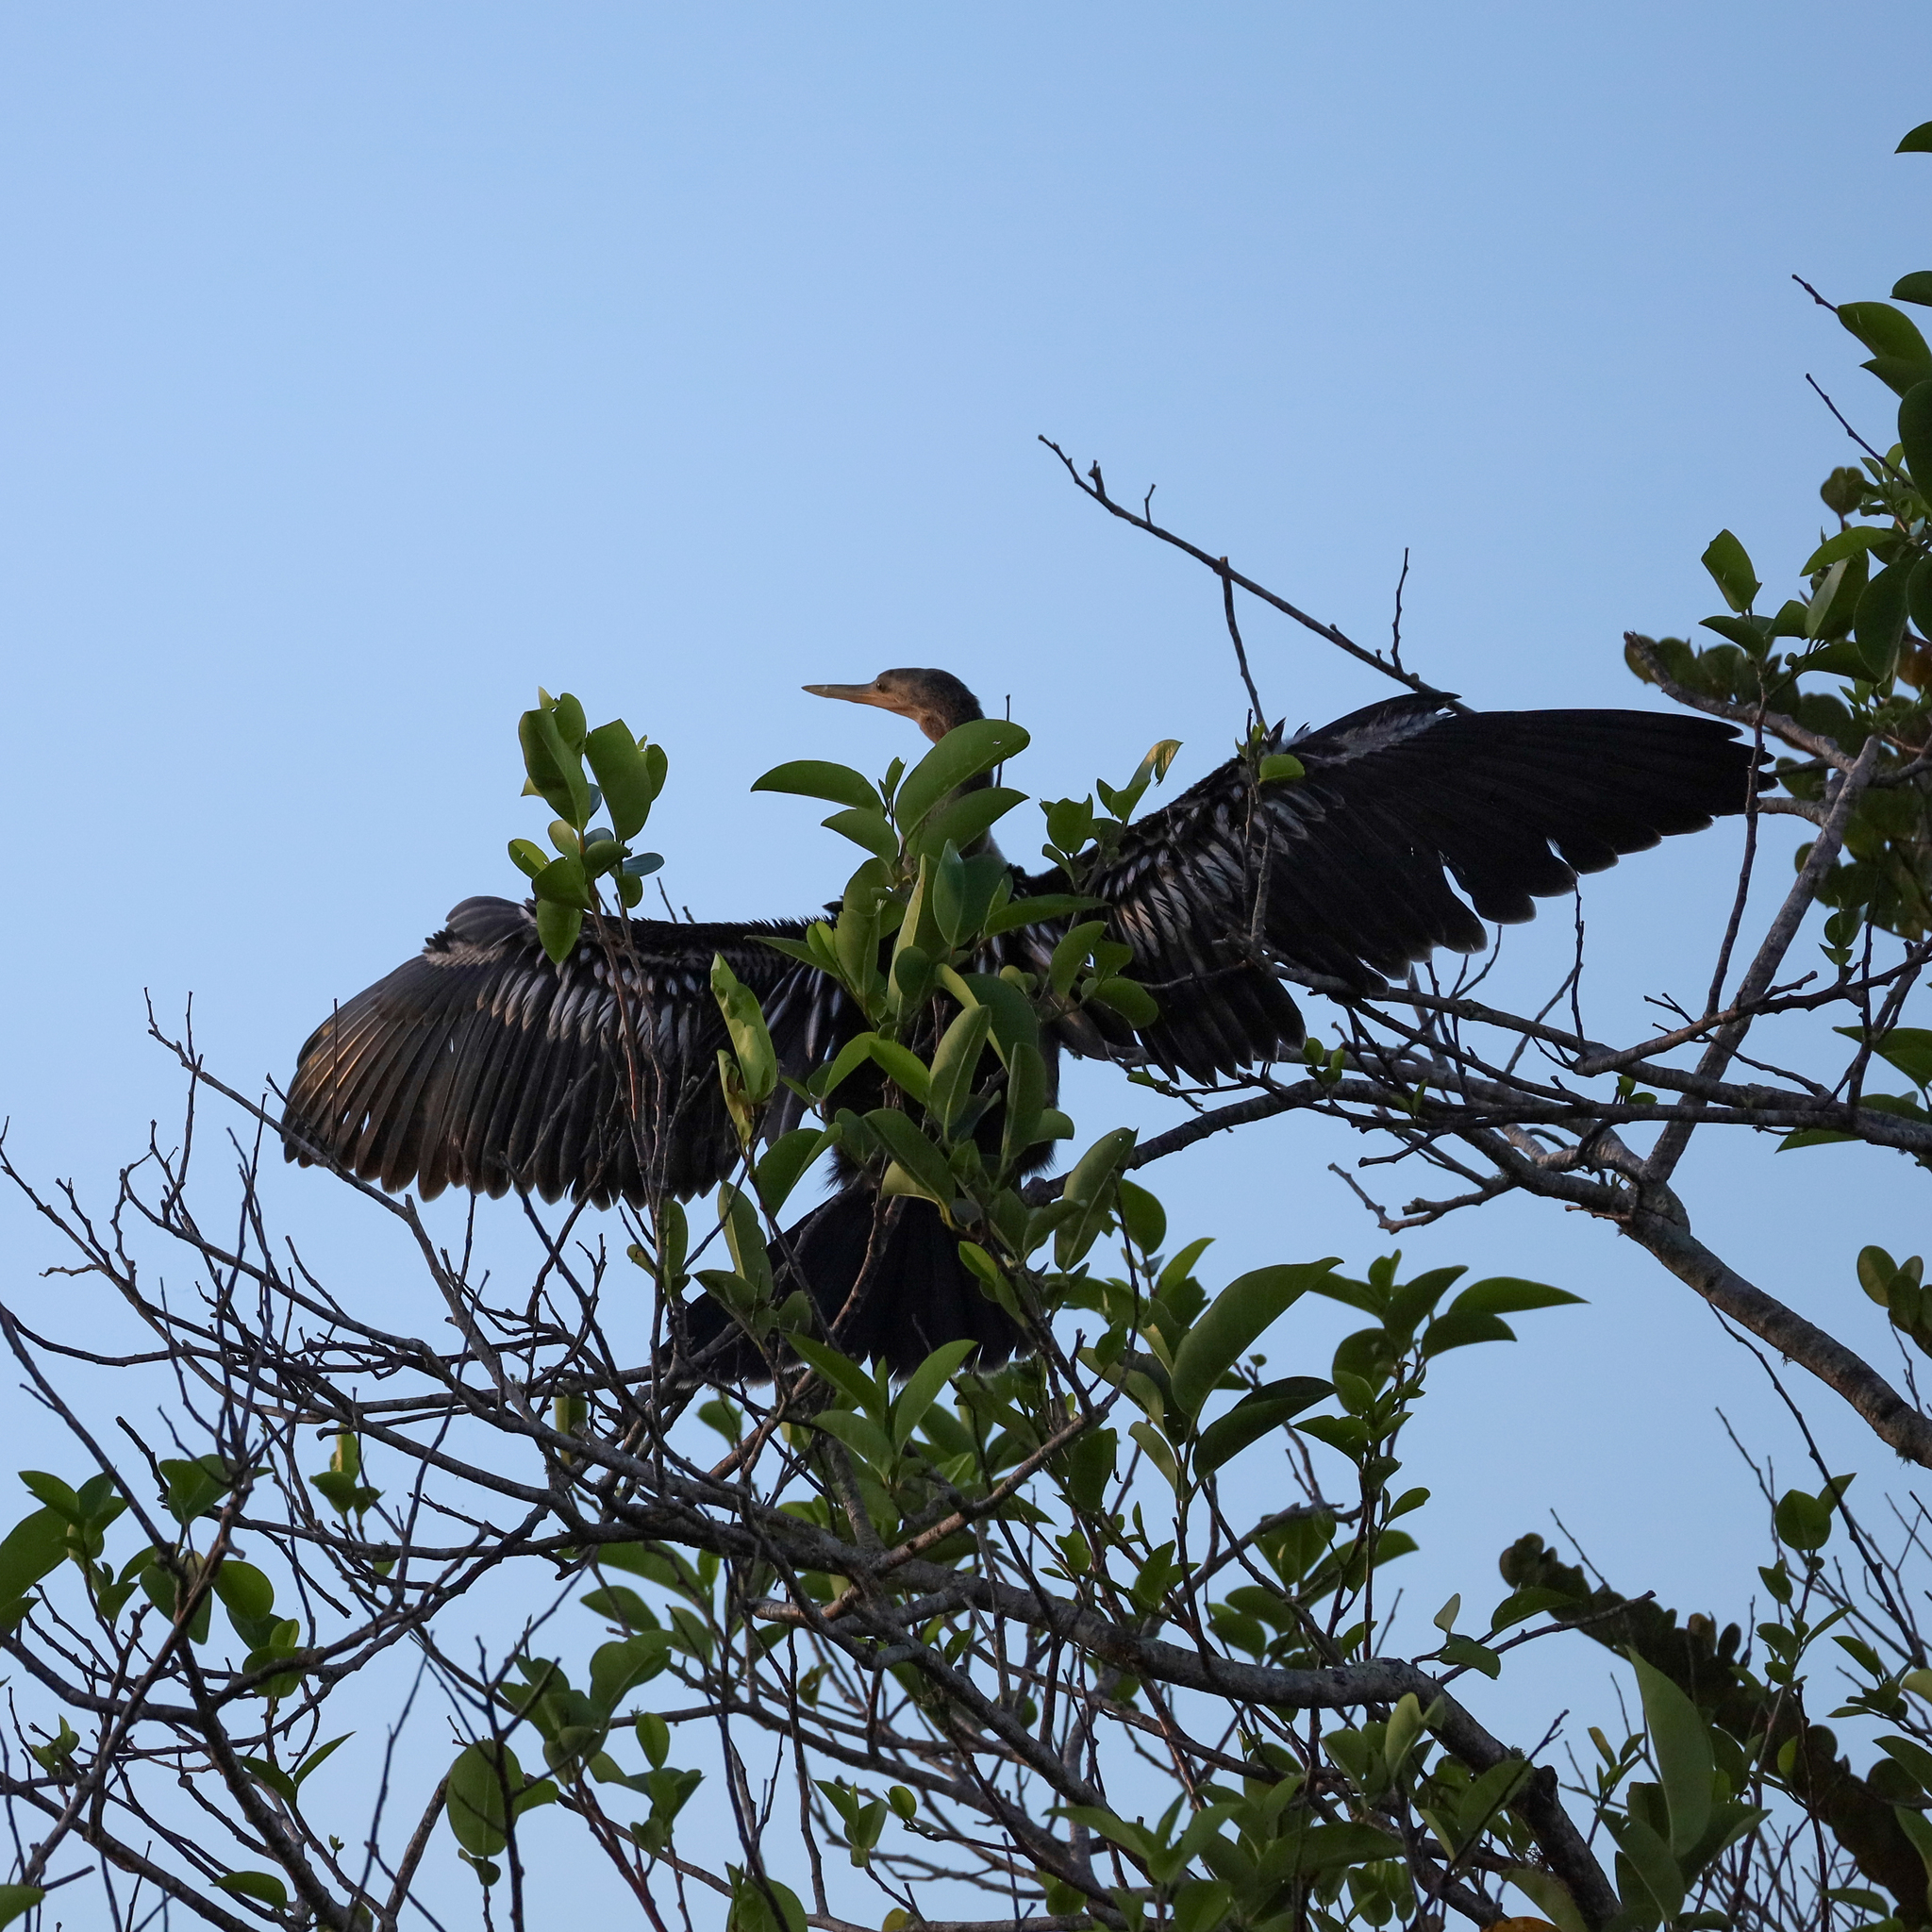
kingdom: Animalia
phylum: Chordata
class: Aves
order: Suliformes
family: Anhingidae
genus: Anhinga
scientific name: Anhinga anhinga
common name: Anhinga
